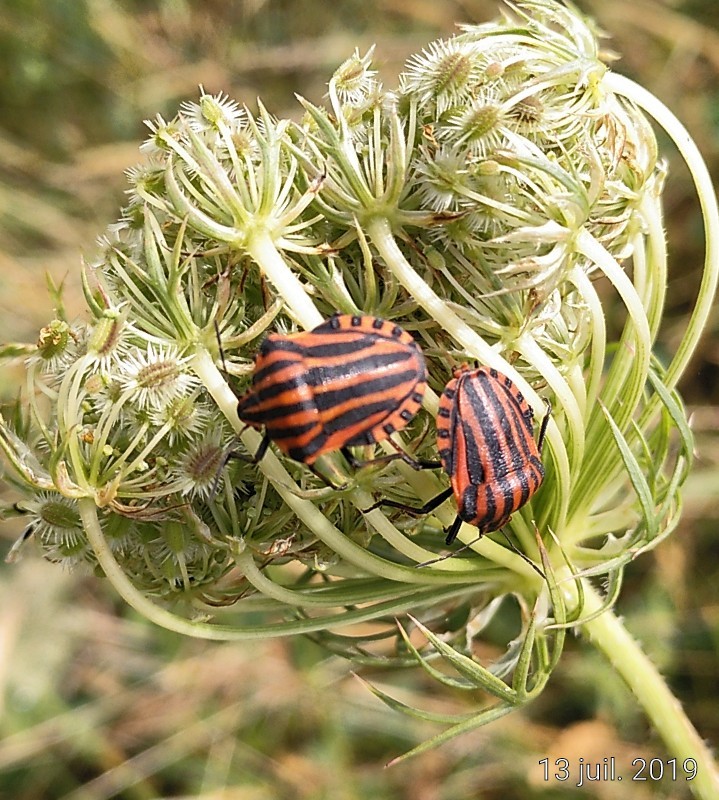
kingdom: Animalia
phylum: Arthropoda
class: Insecta
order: Hemiptera
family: Pentatomidae
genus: Graphosoma
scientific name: Graphosoma italicum
